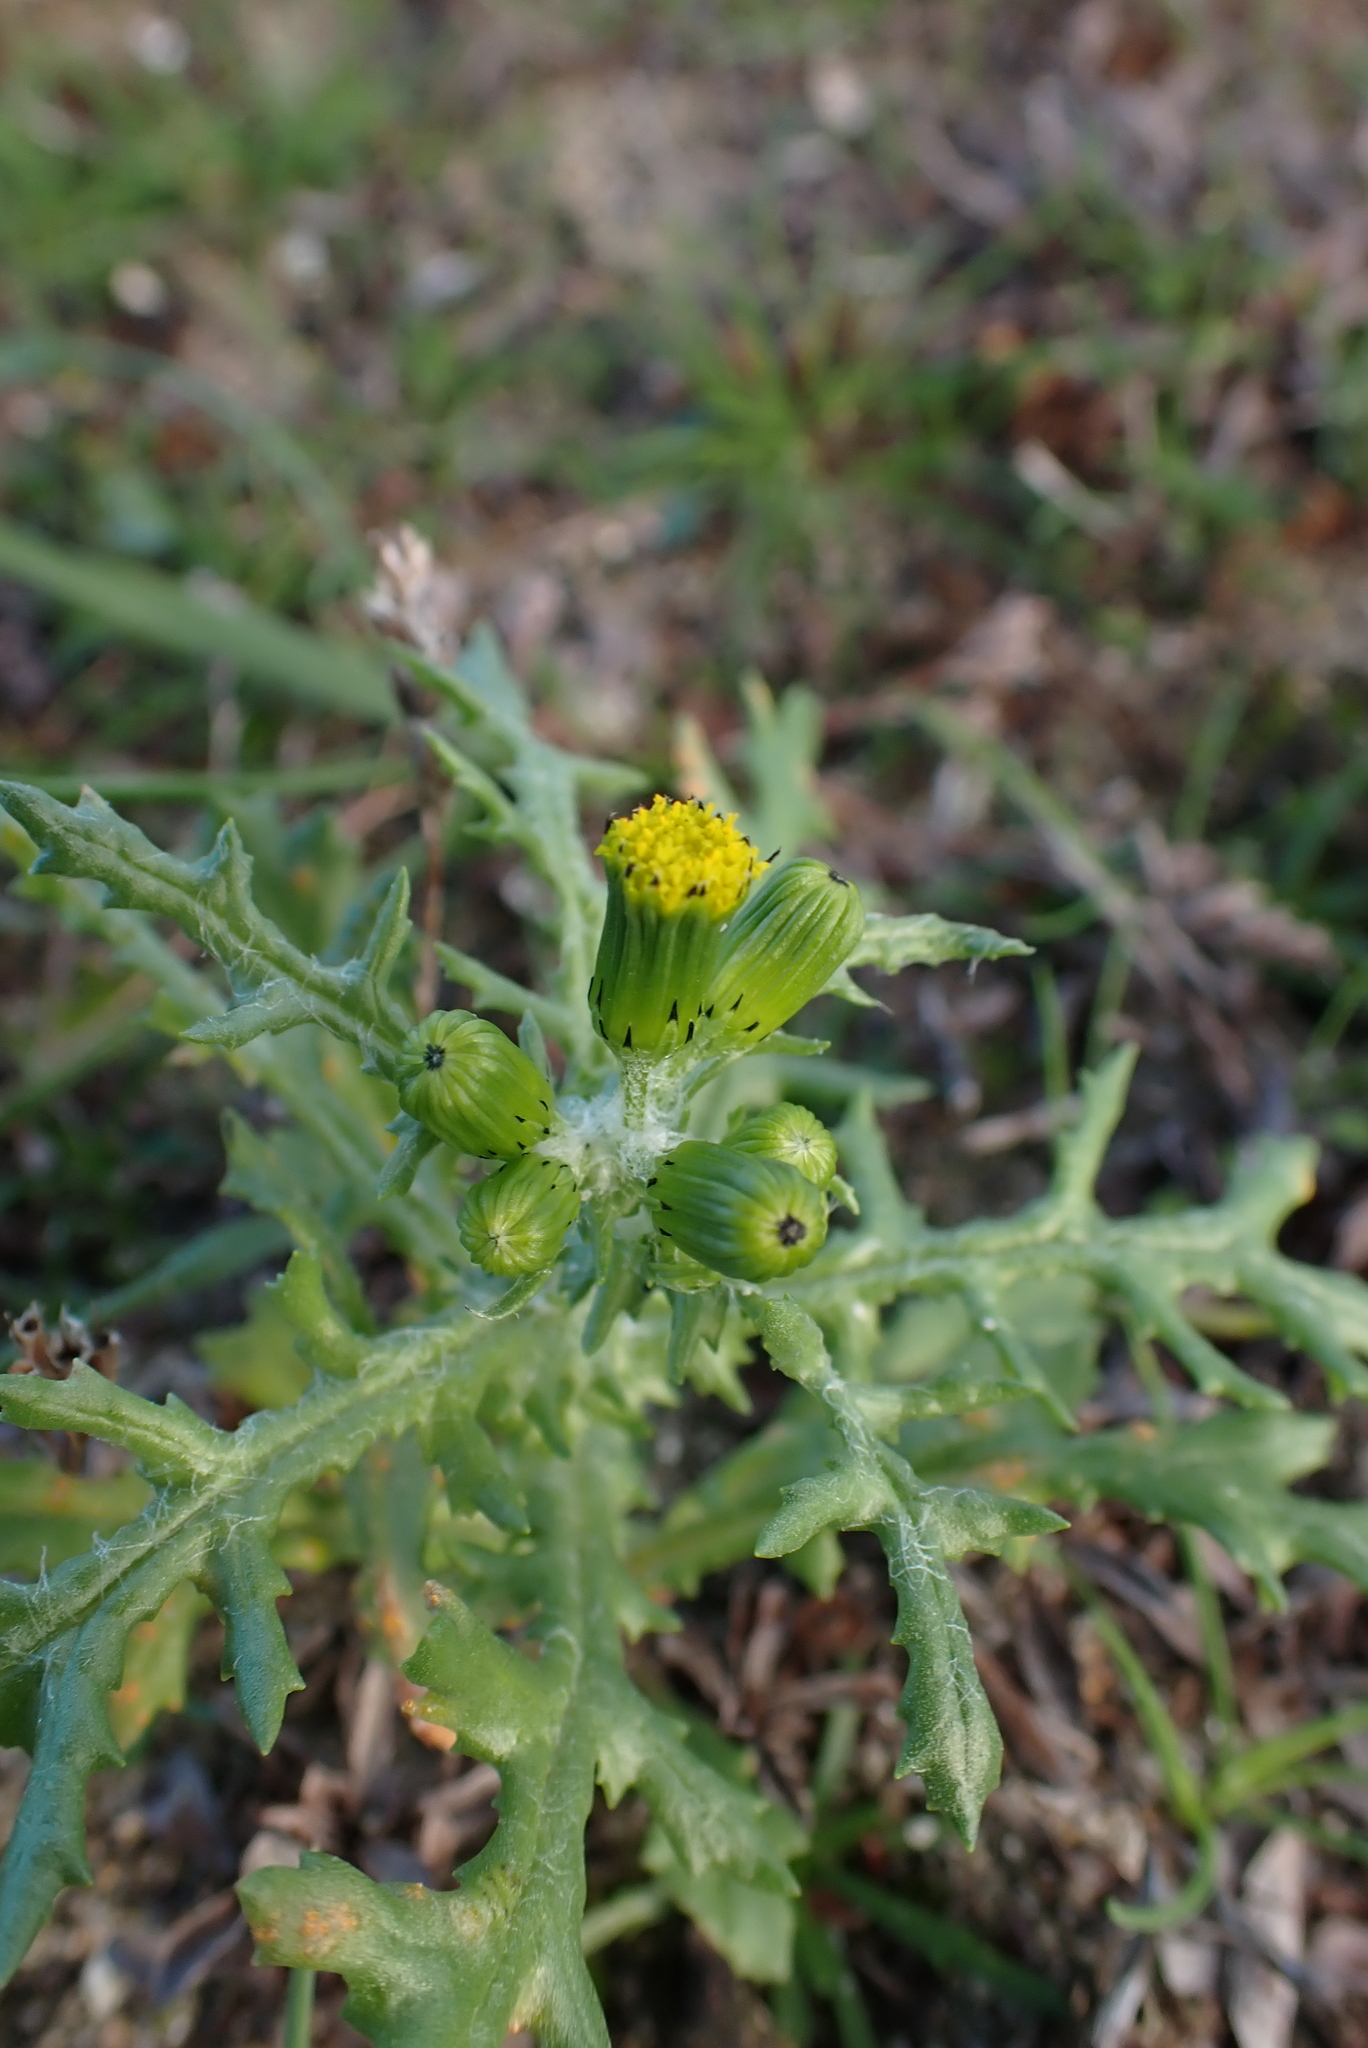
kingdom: Plantae
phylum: Tracheophyta
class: Magnoliopsida
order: Asterales
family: Asteraceae
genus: Senecio
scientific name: Senecio vulgaris
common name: Old-man-in-the-spring
